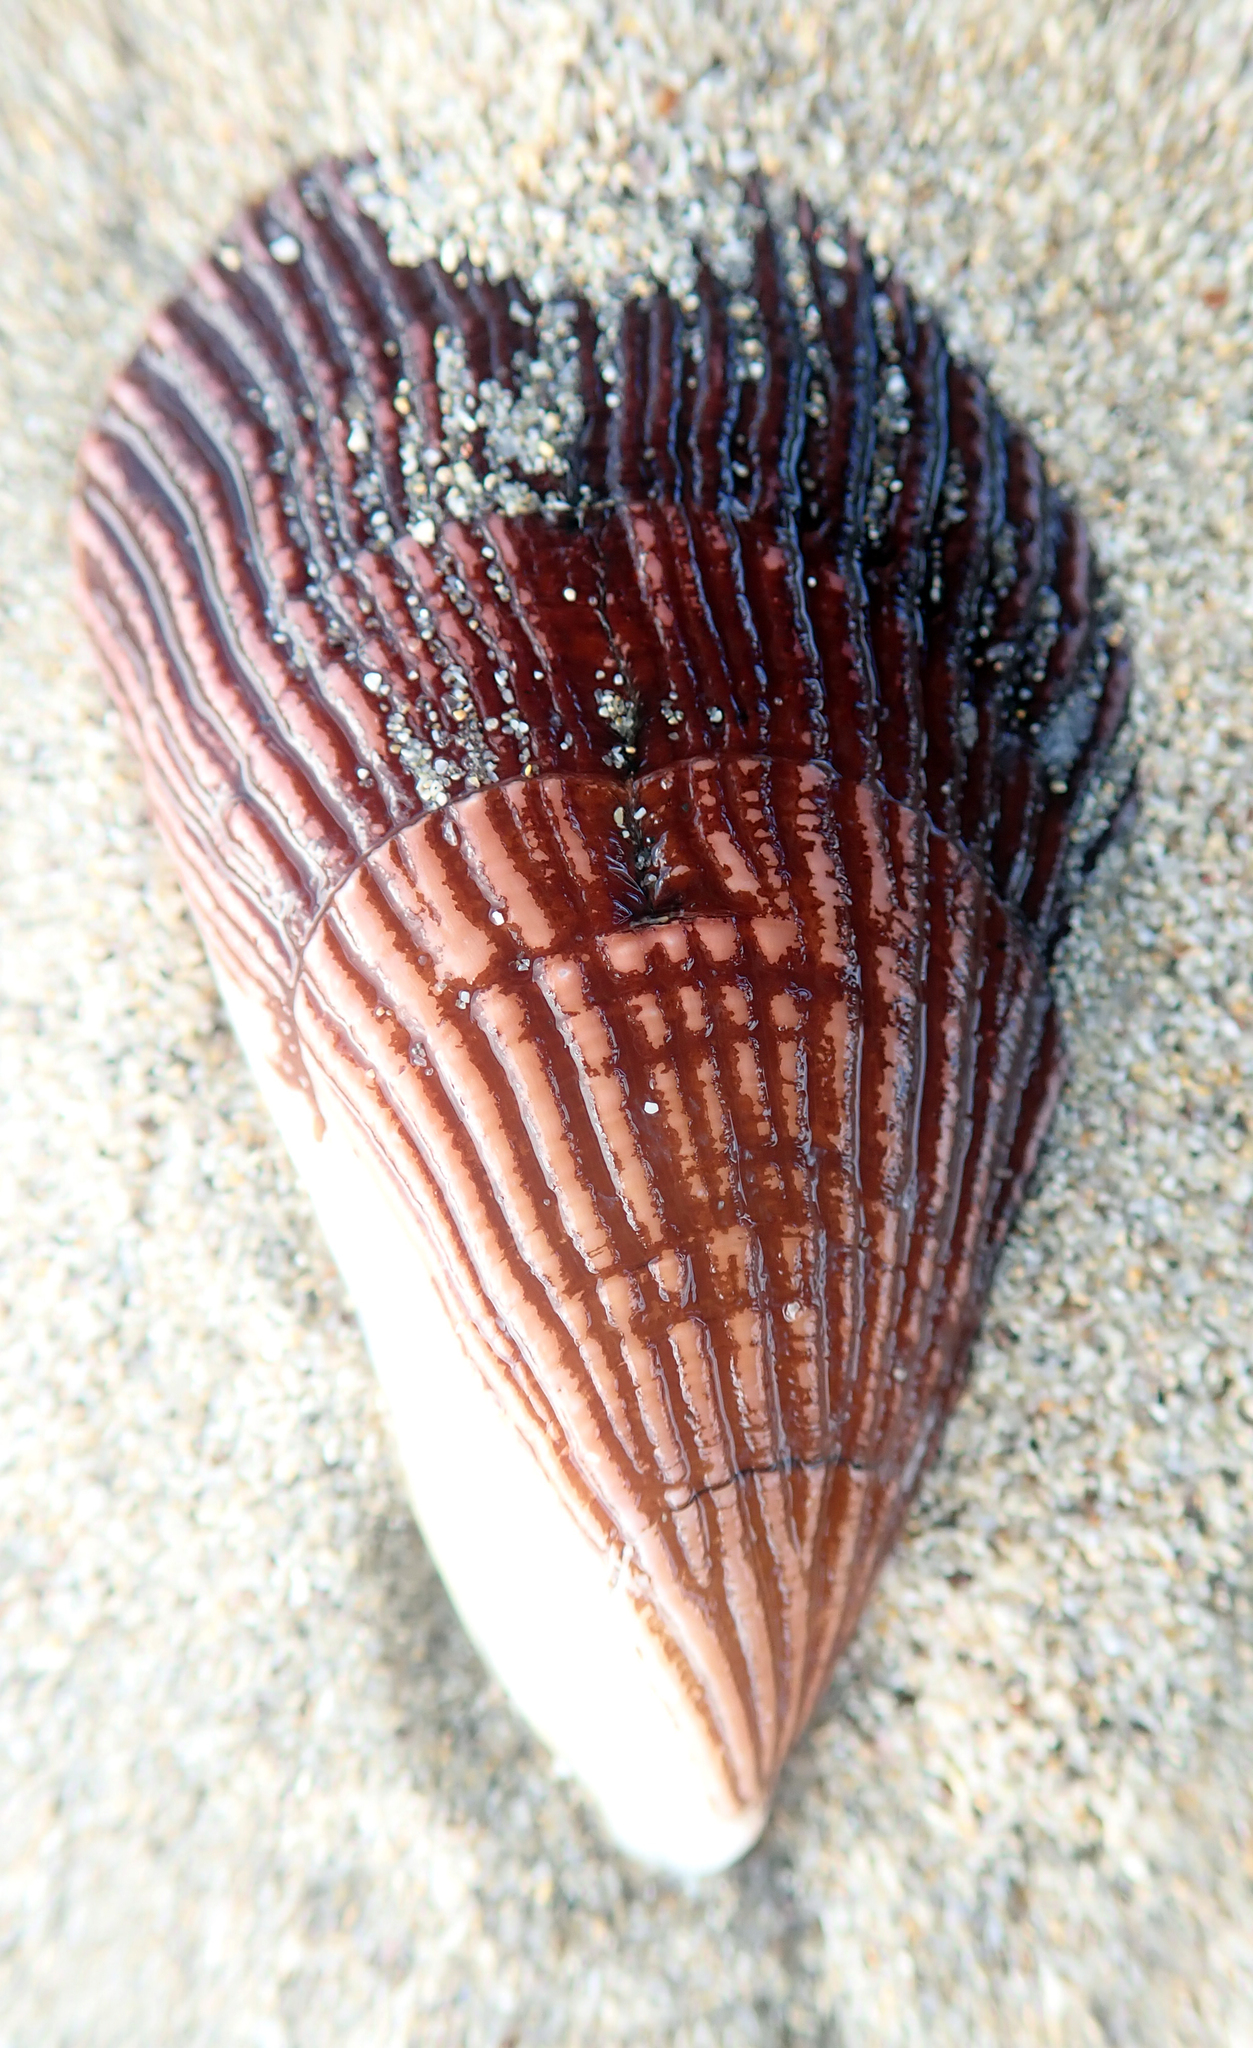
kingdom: Animalia
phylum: Mollusca
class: Bivalvia
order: Mytilida
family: Mytilidae
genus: Aulacomya
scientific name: Aulacomya maoriana
